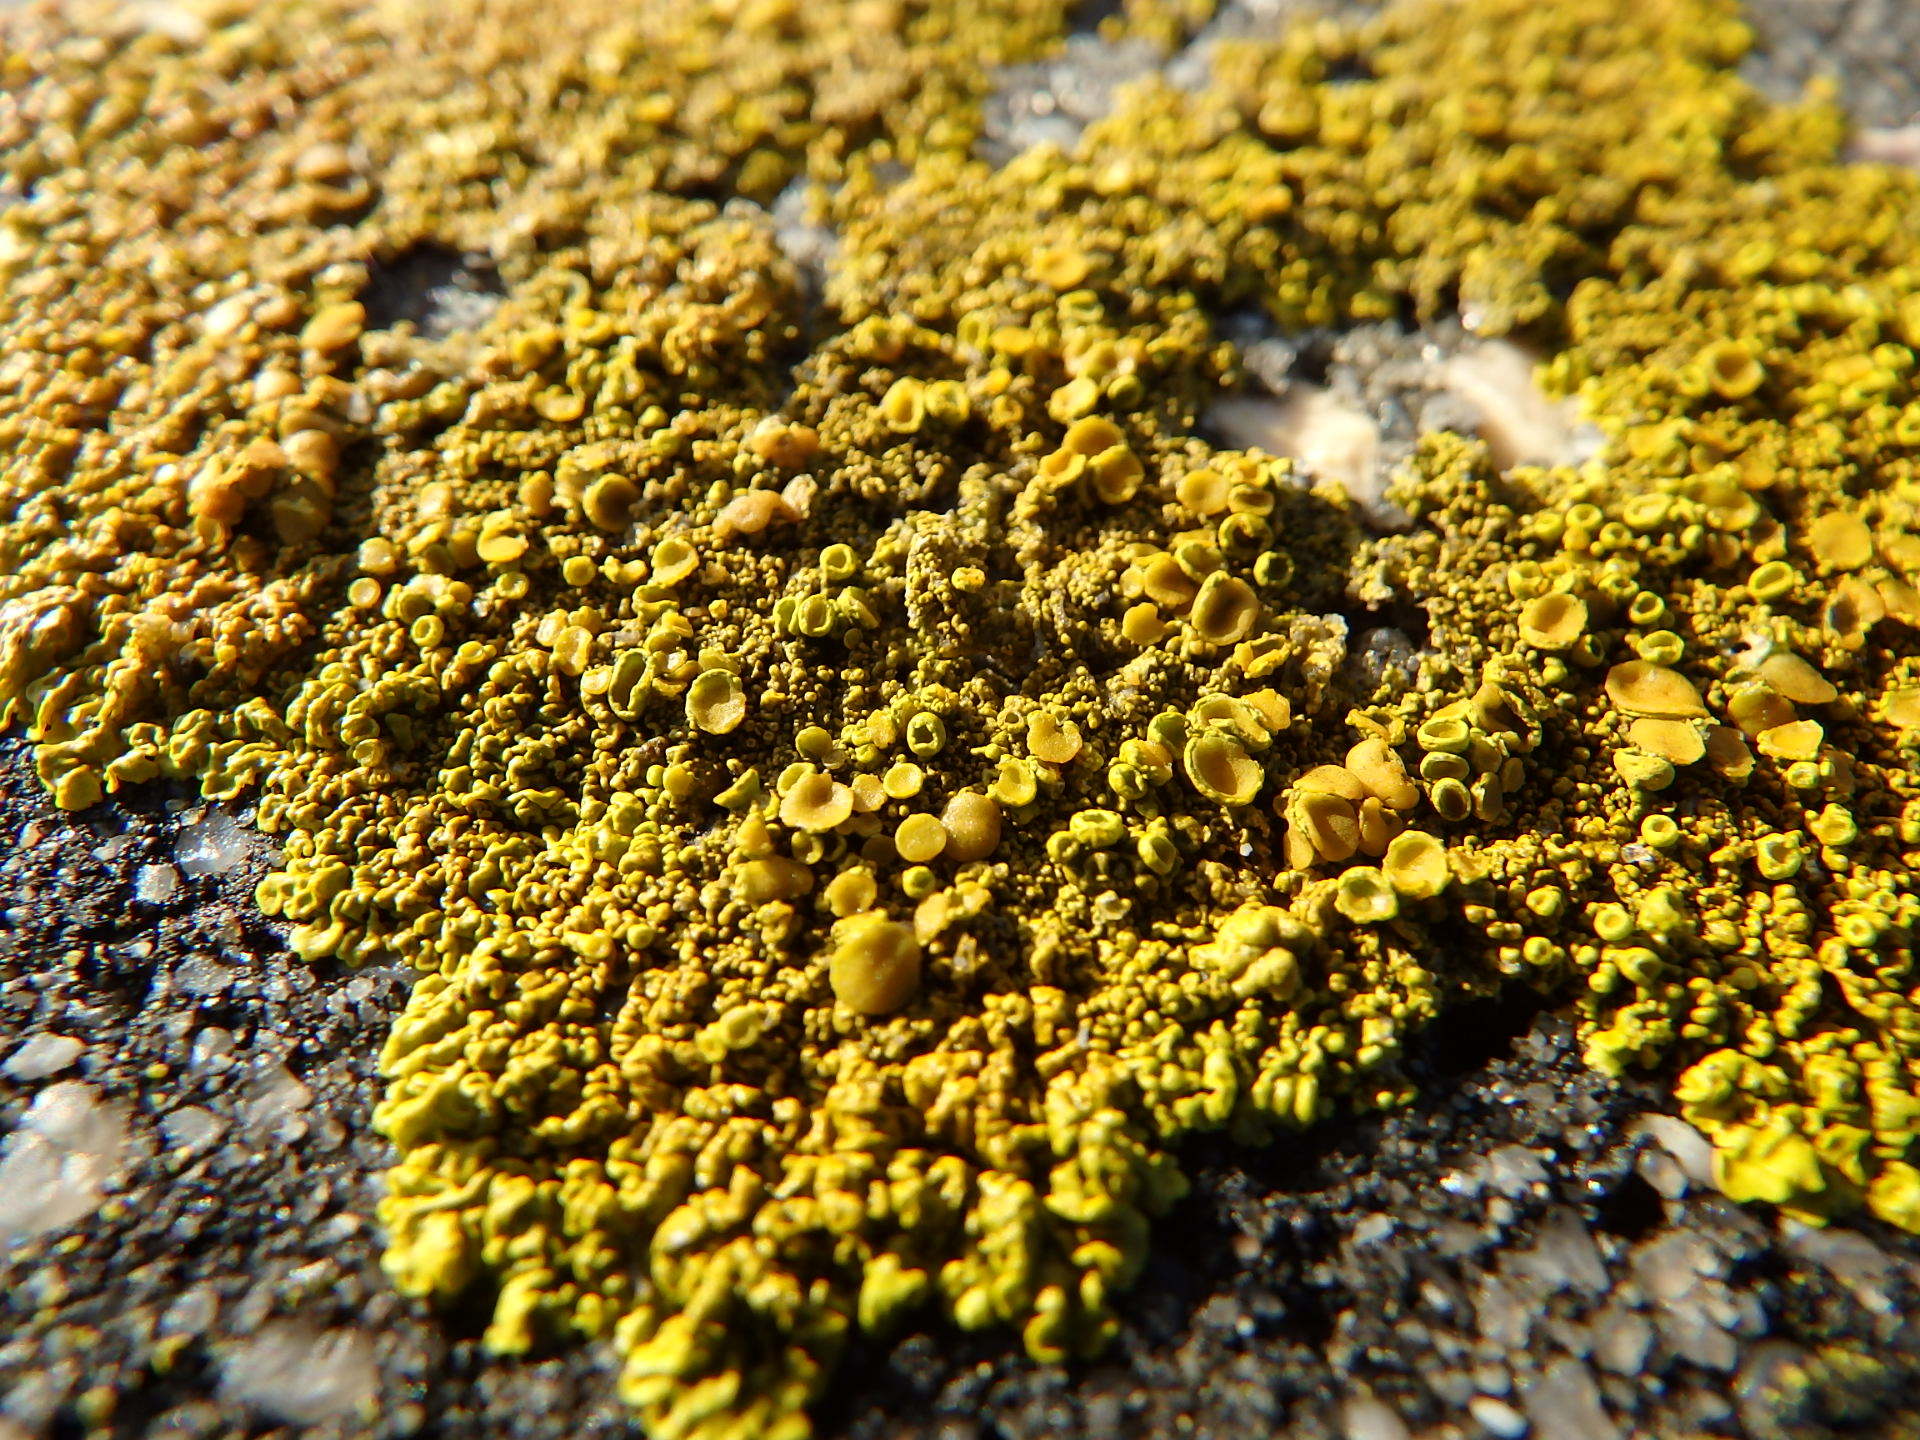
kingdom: Fungi
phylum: Ascomycota
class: Lecanoromycetes
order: Teloschistales
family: Teloschistaceae
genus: Xanthoria
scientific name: Xanthoria parietina
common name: Common orange lichen
